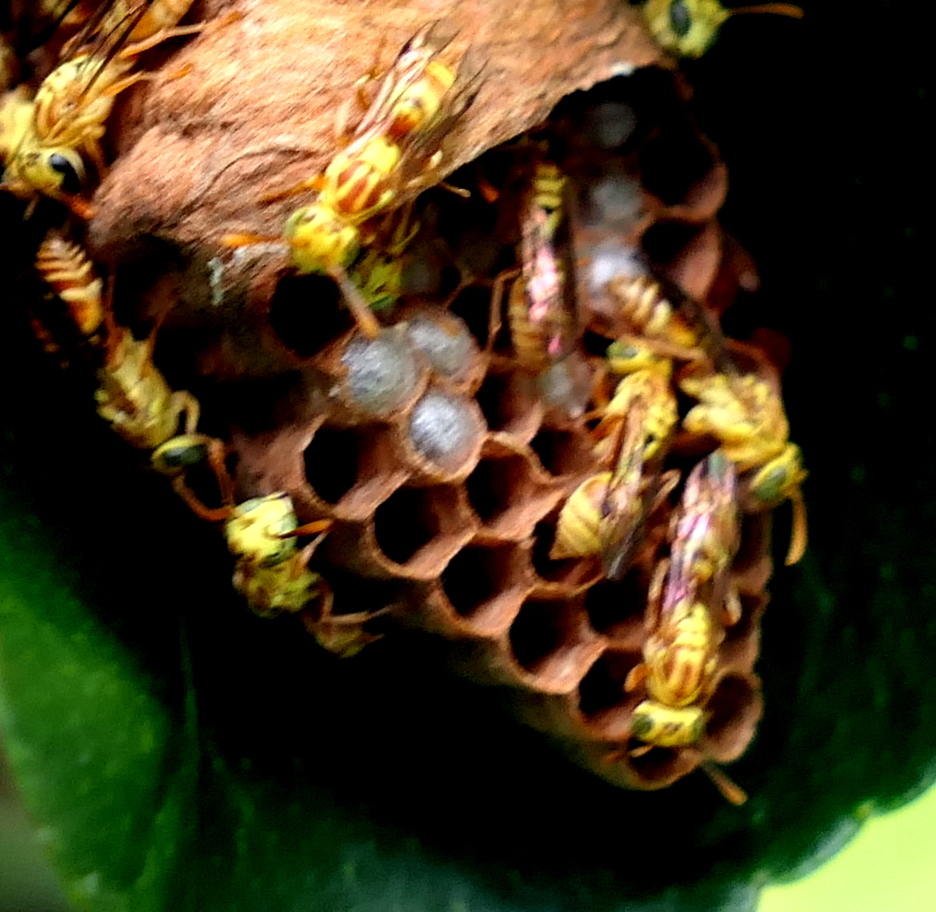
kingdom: Animalia
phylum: Arthropoda
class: Insecta
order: Hymenoptera
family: Vespidae
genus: Protopolybia
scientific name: Protopolybia potiguara
